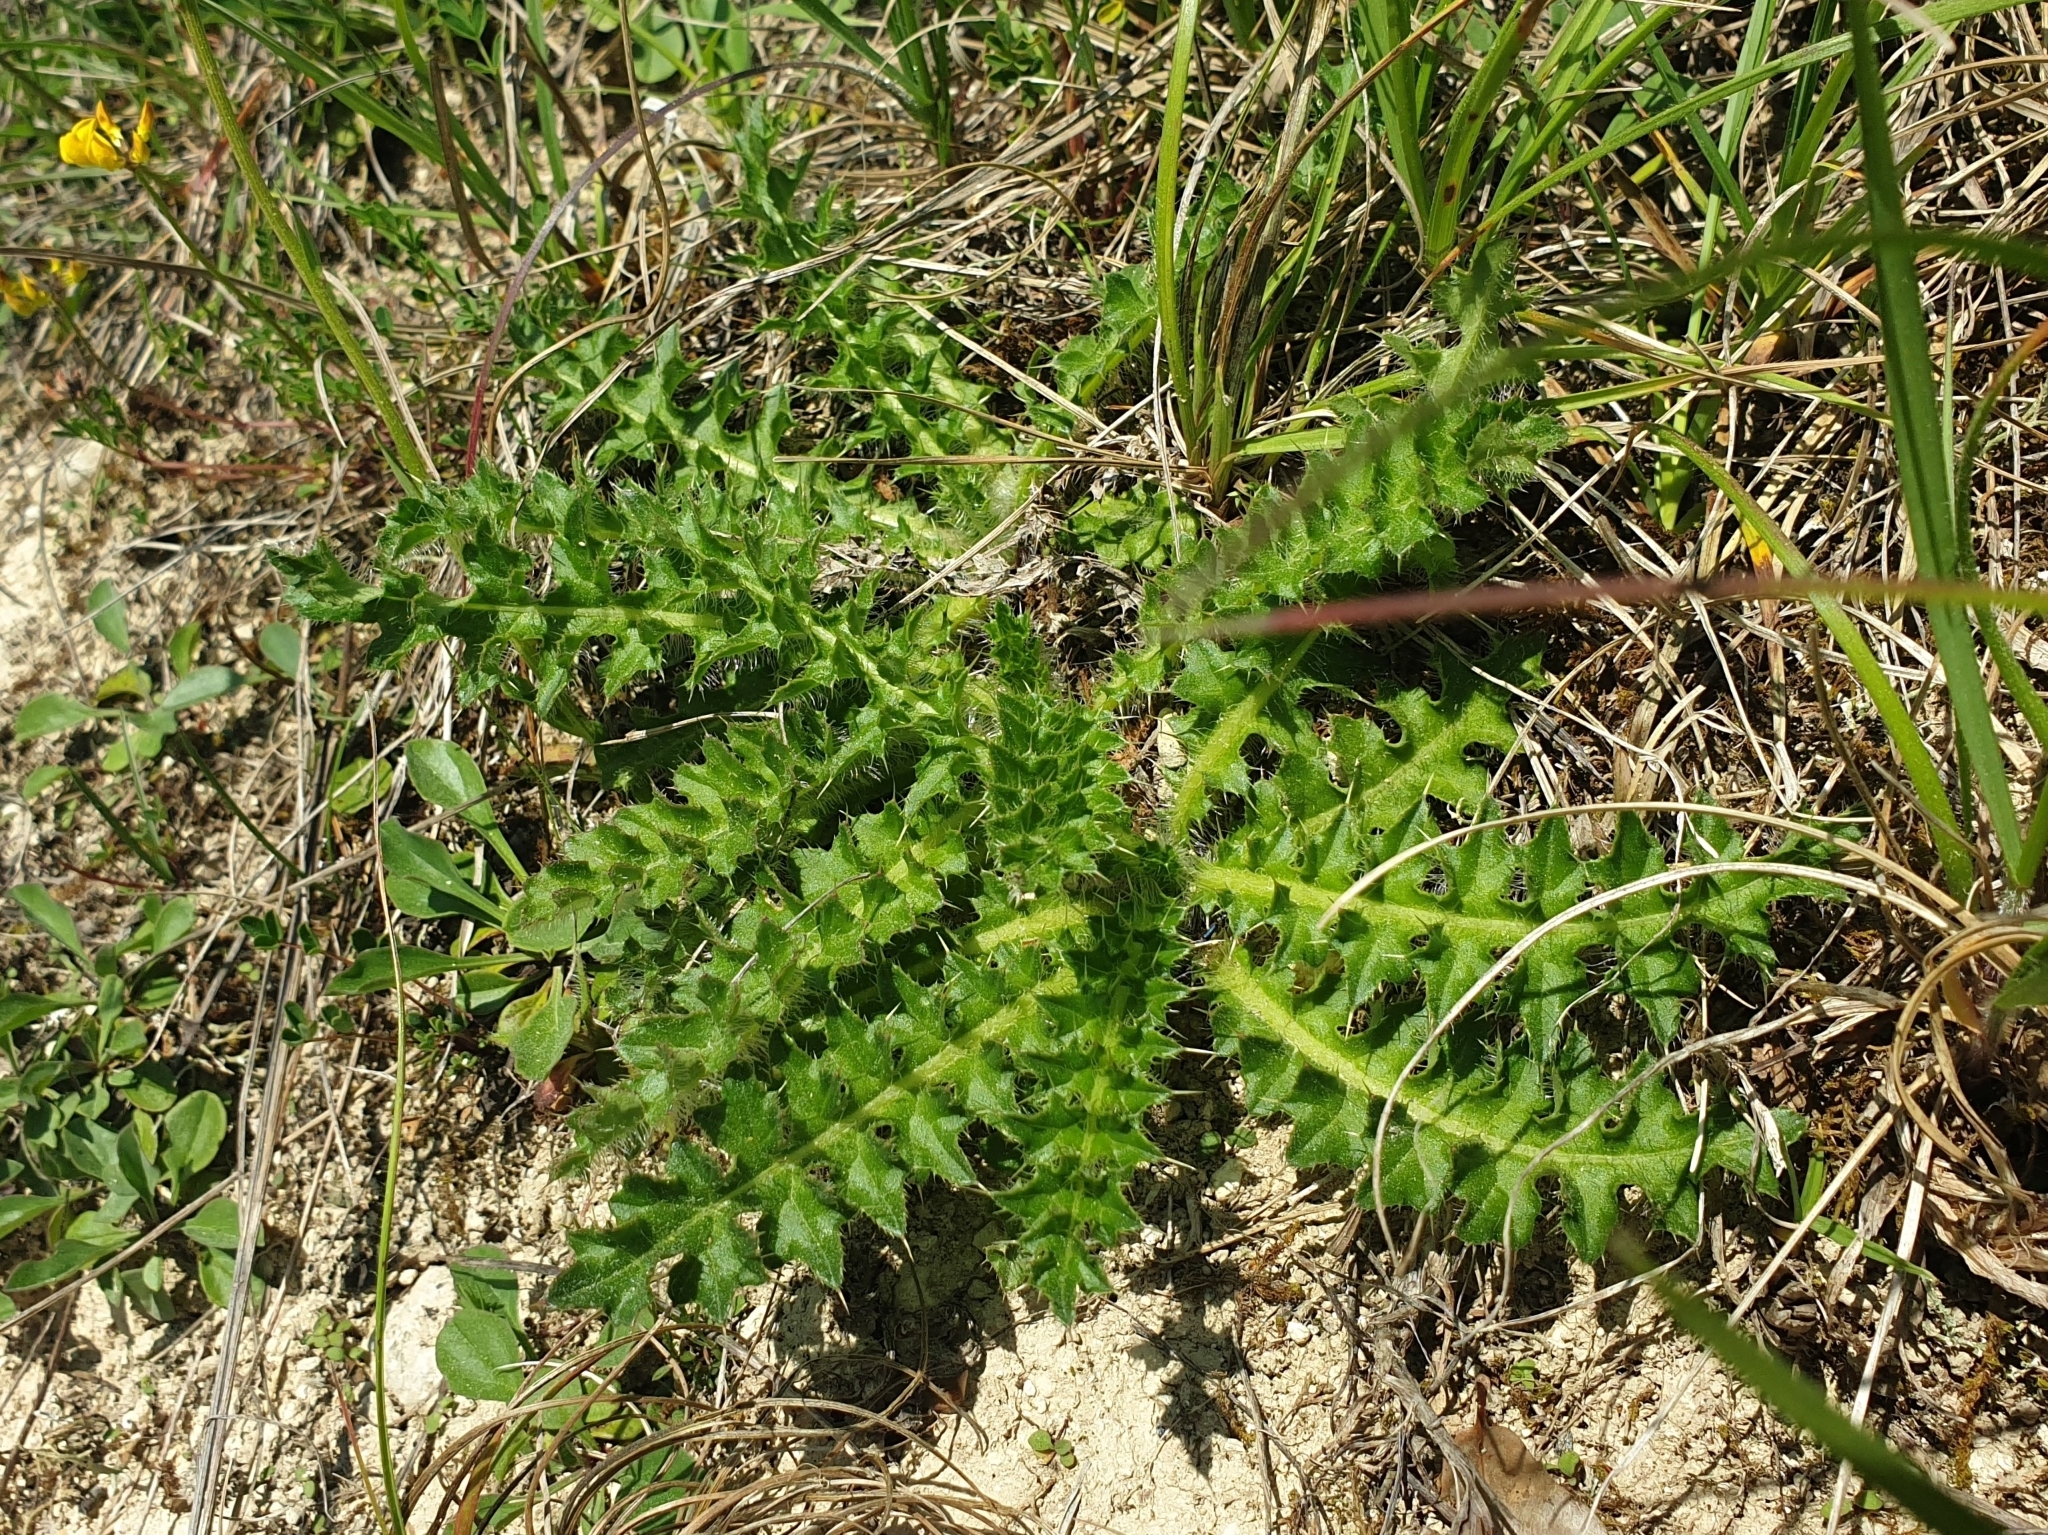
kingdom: Plantae
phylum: Tracheophyta
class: Magnoliopsida
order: Asterales
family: Asteraceae
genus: Cirsium
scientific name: Cirsium acaulon
